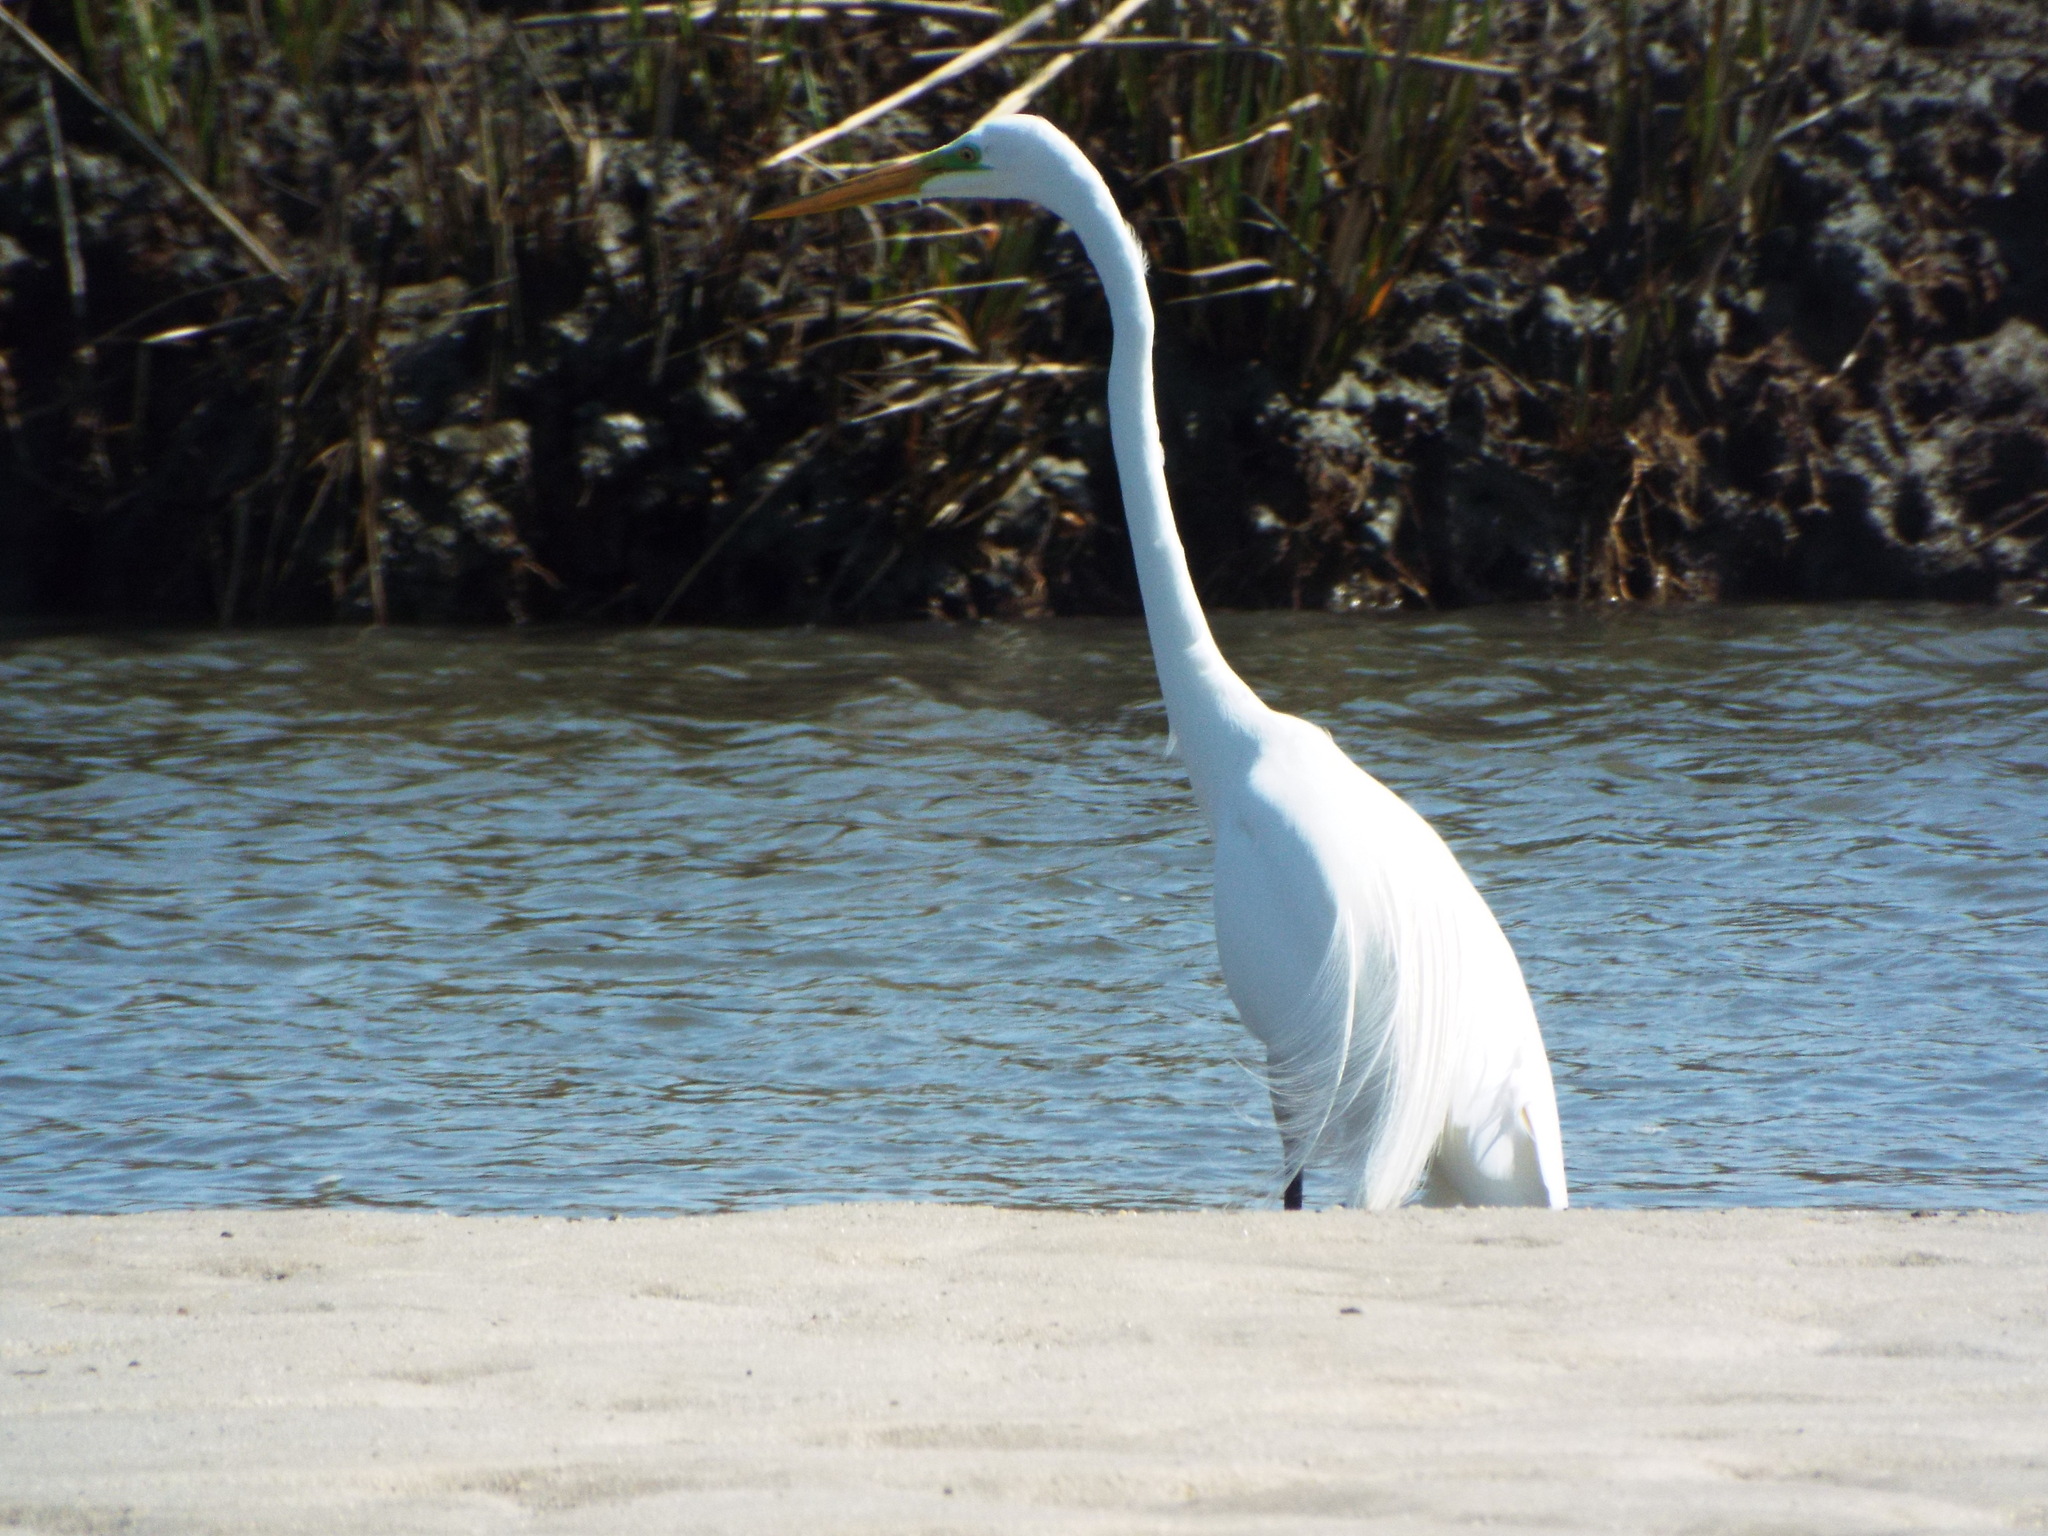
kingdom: Animalia
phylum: Chordata
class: Aves
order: Pelecaniformes
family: Ardeidae
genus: Ardea
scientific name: Ardea alba
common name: Great egret
